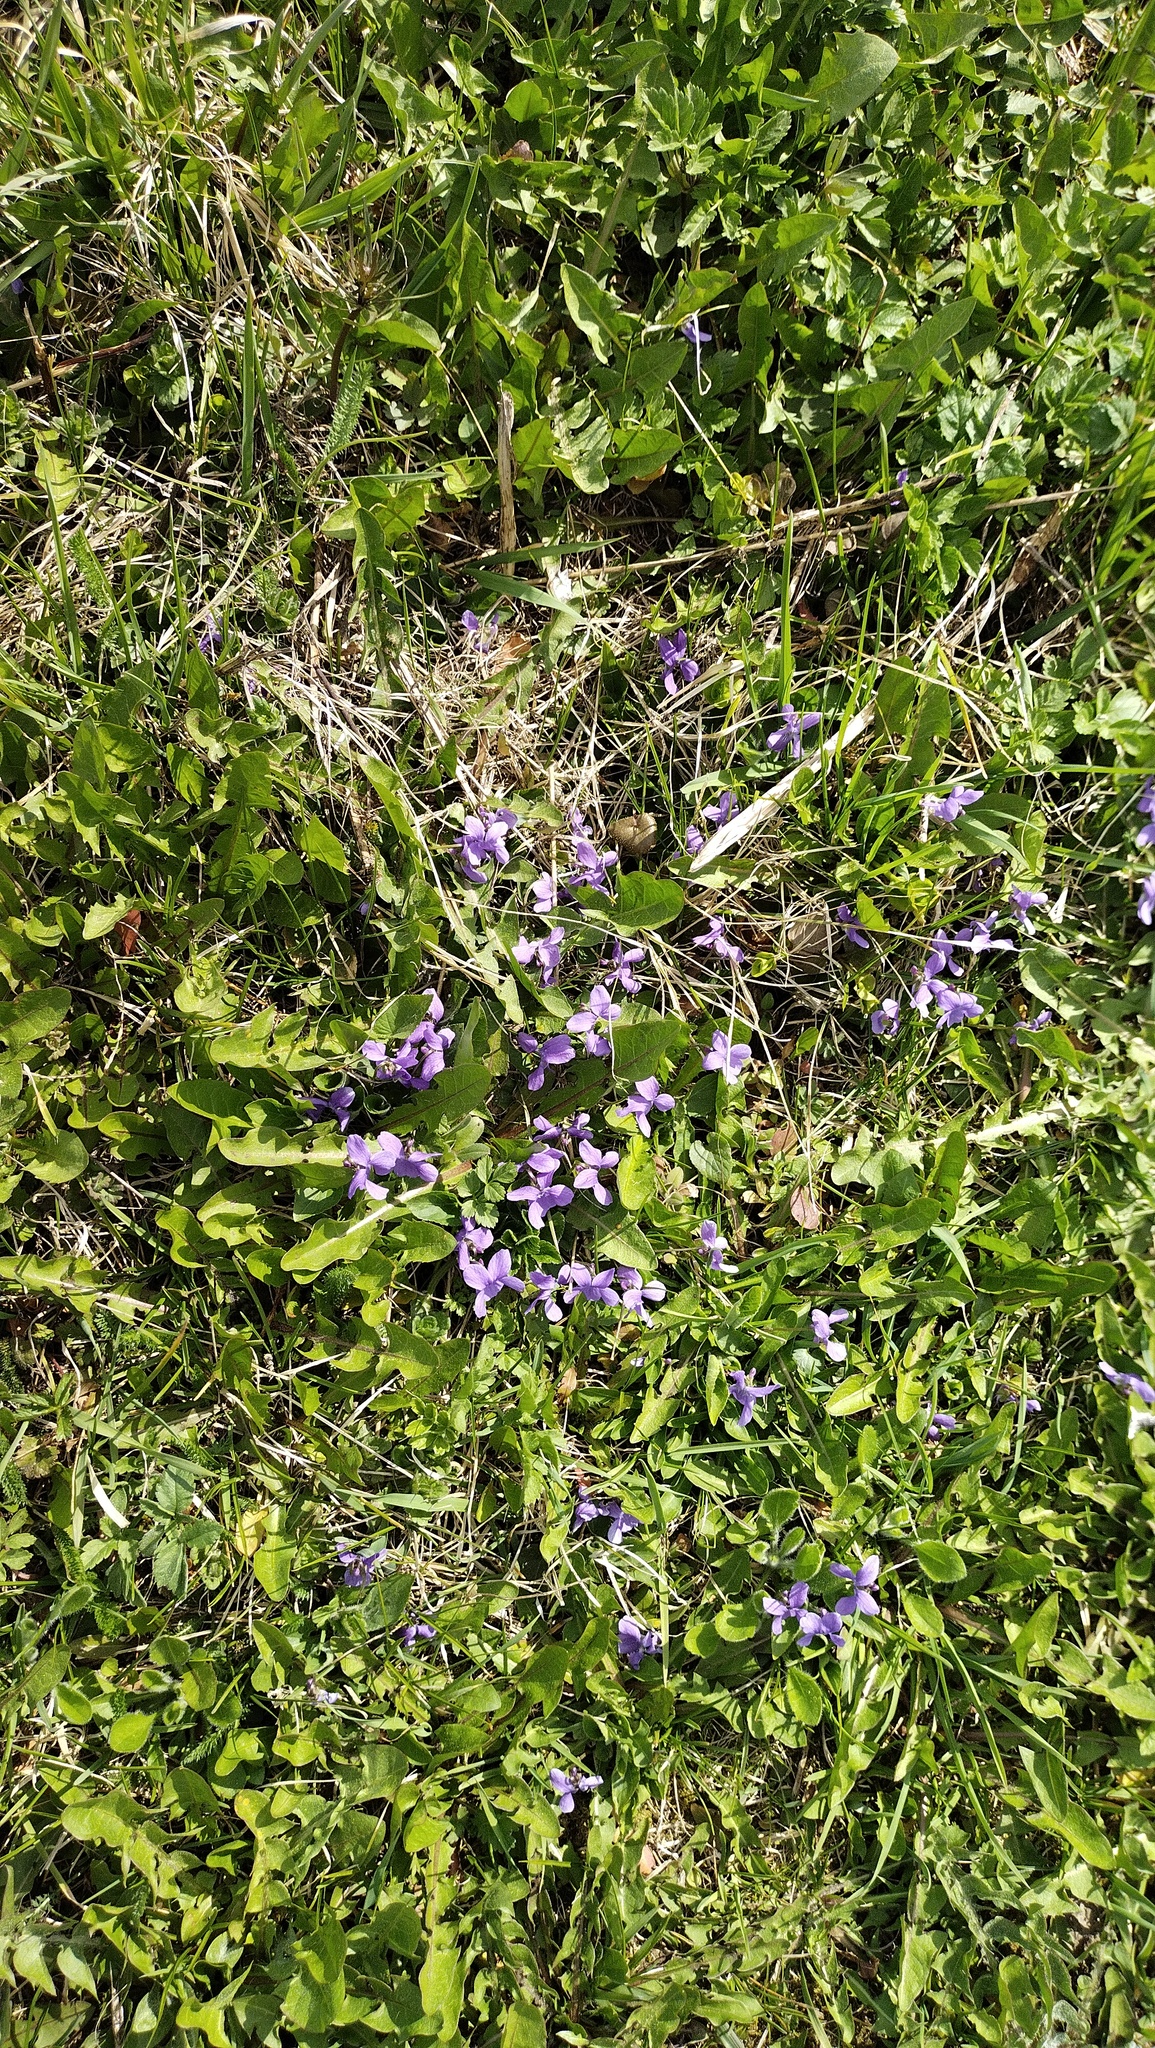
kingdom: Plantae
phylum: Tracheophyta
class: Magnoliopsida
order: Malpighiales
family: Violaceae
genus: Viola
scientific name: Viola hirta
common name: Hairy violet
